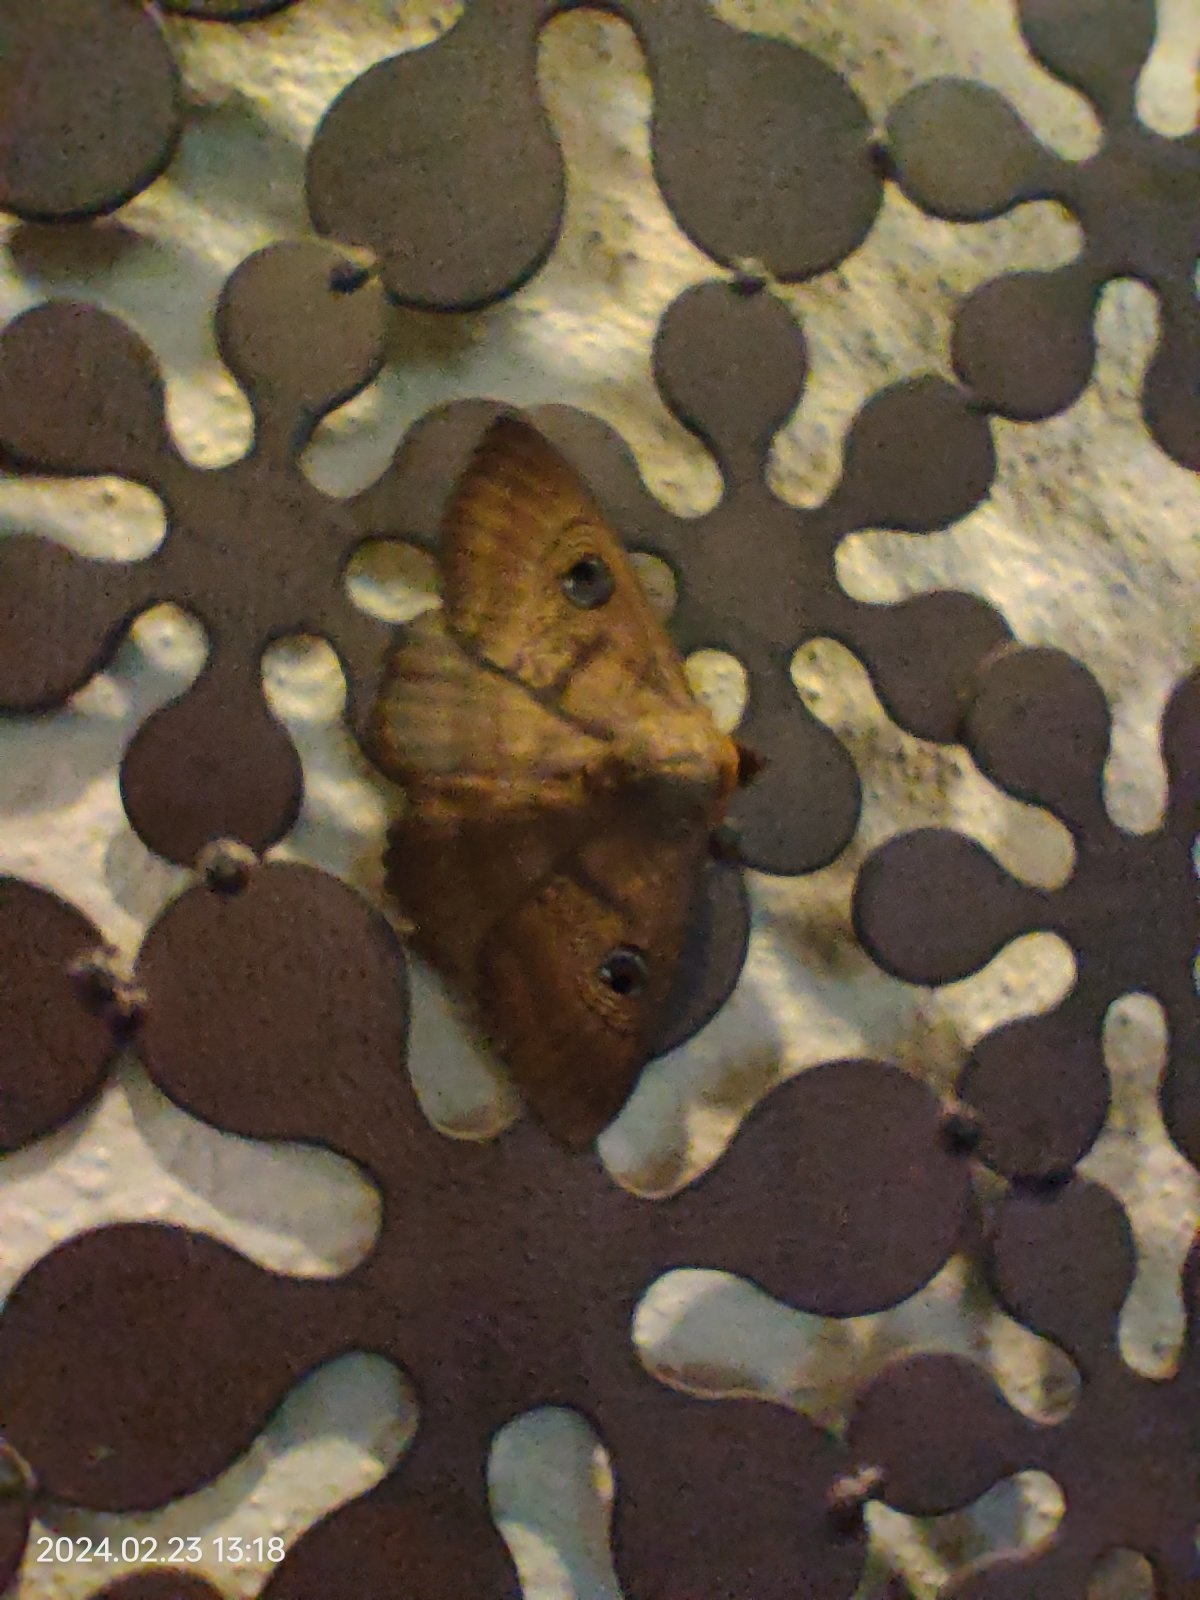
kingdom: Animalia
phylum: Arthropoda
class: Insecta
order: Lepidoptera
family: Erebidae
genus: Dasypodia
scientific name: Dasypodia selenophora
